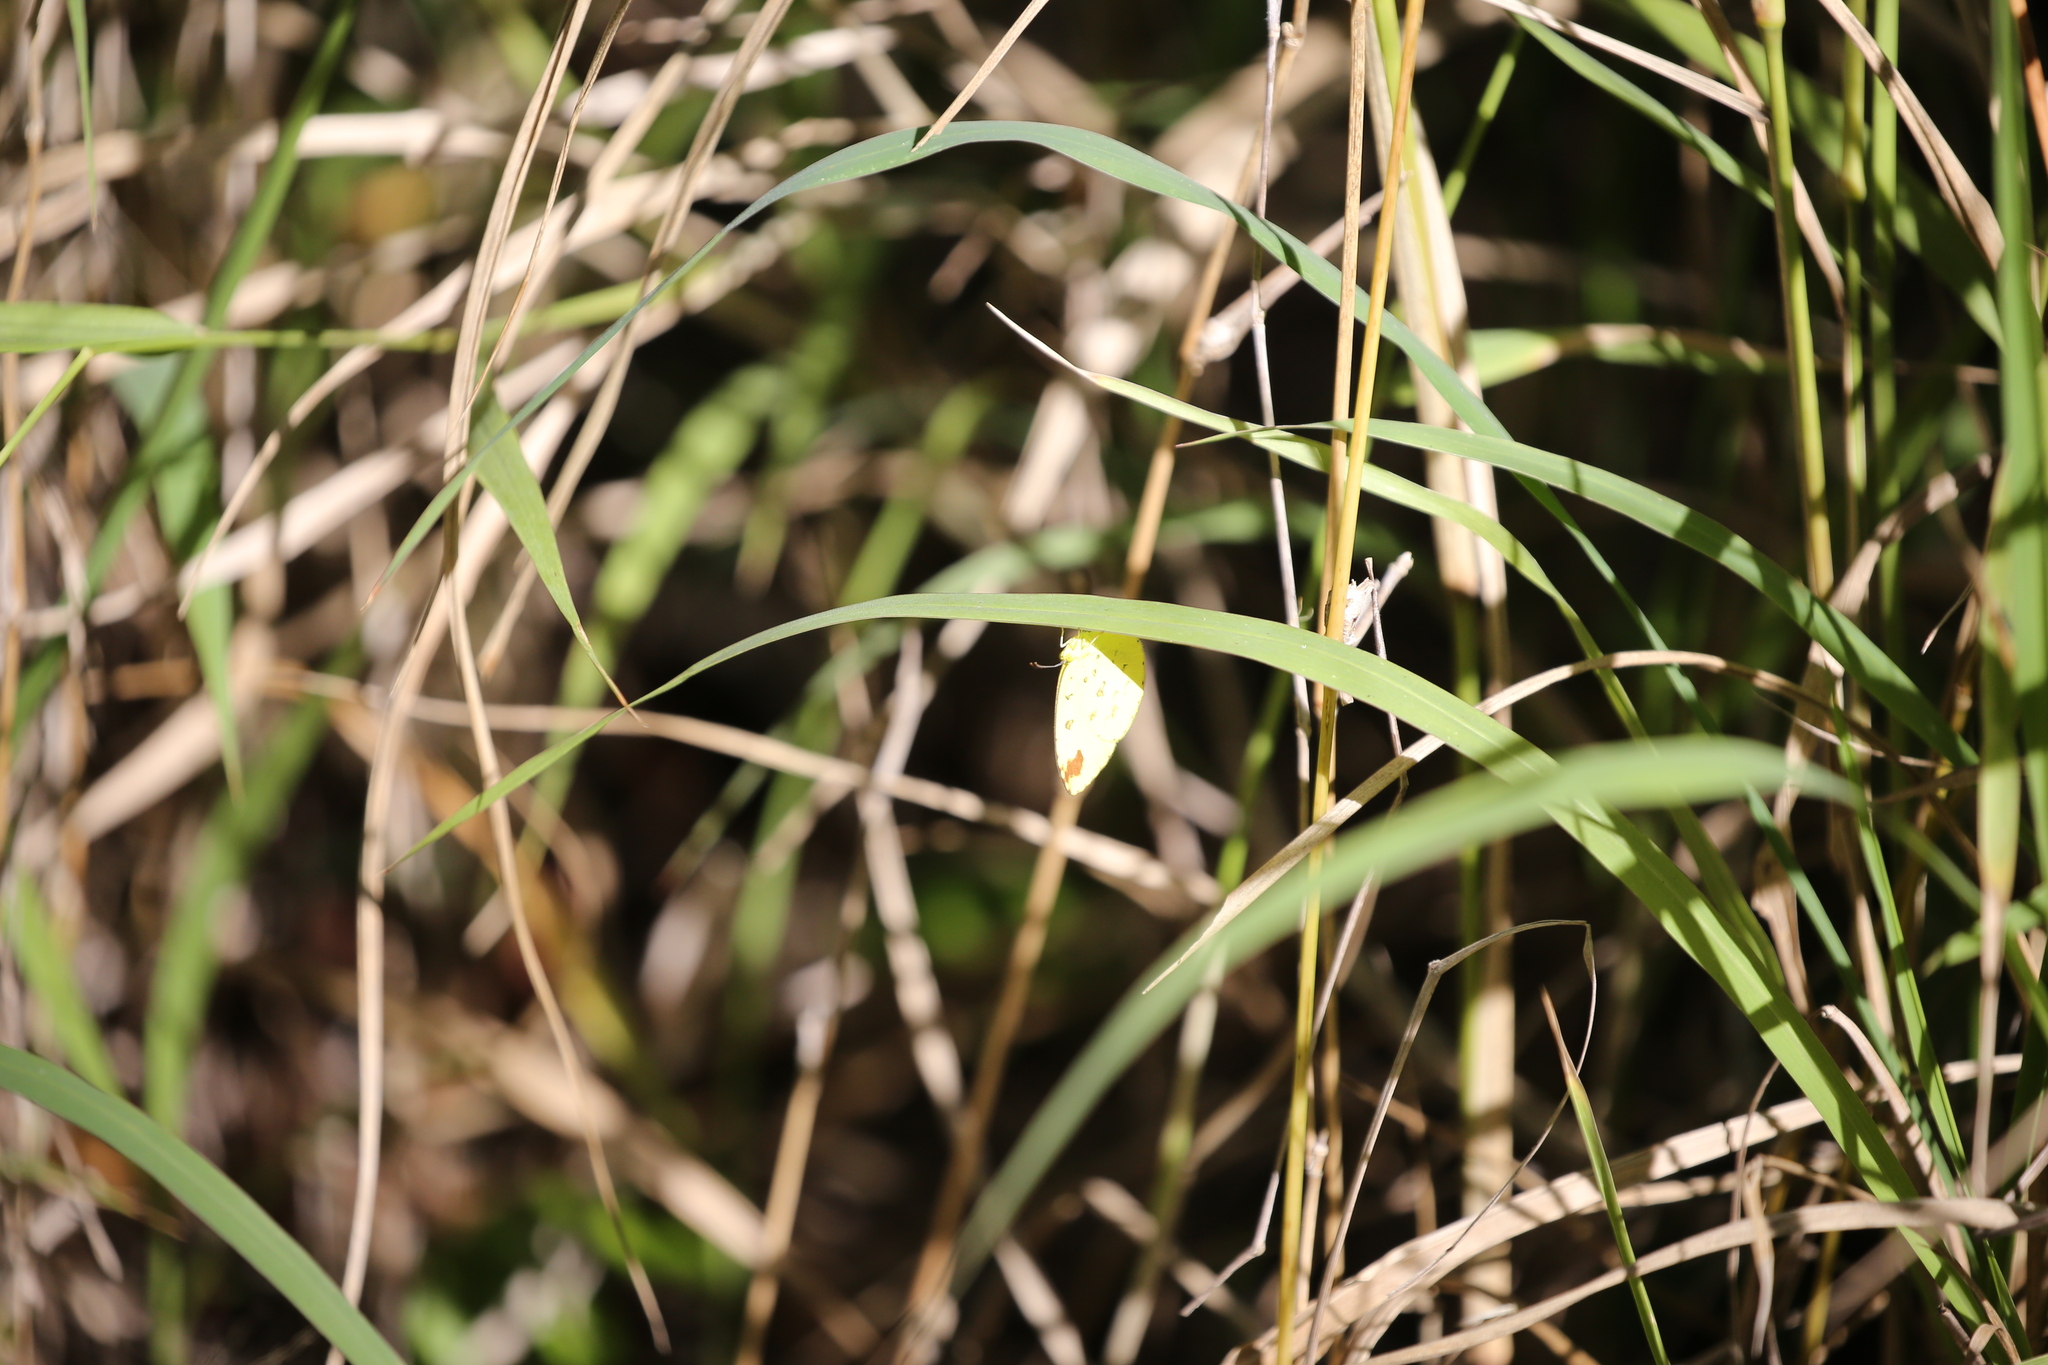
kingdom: Animalia
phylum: Arthropoda
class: Insecta
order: Lepidoptera
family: Pieridae
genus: Eurema
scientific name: Eurema hecabe
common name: Pale grass yellow
